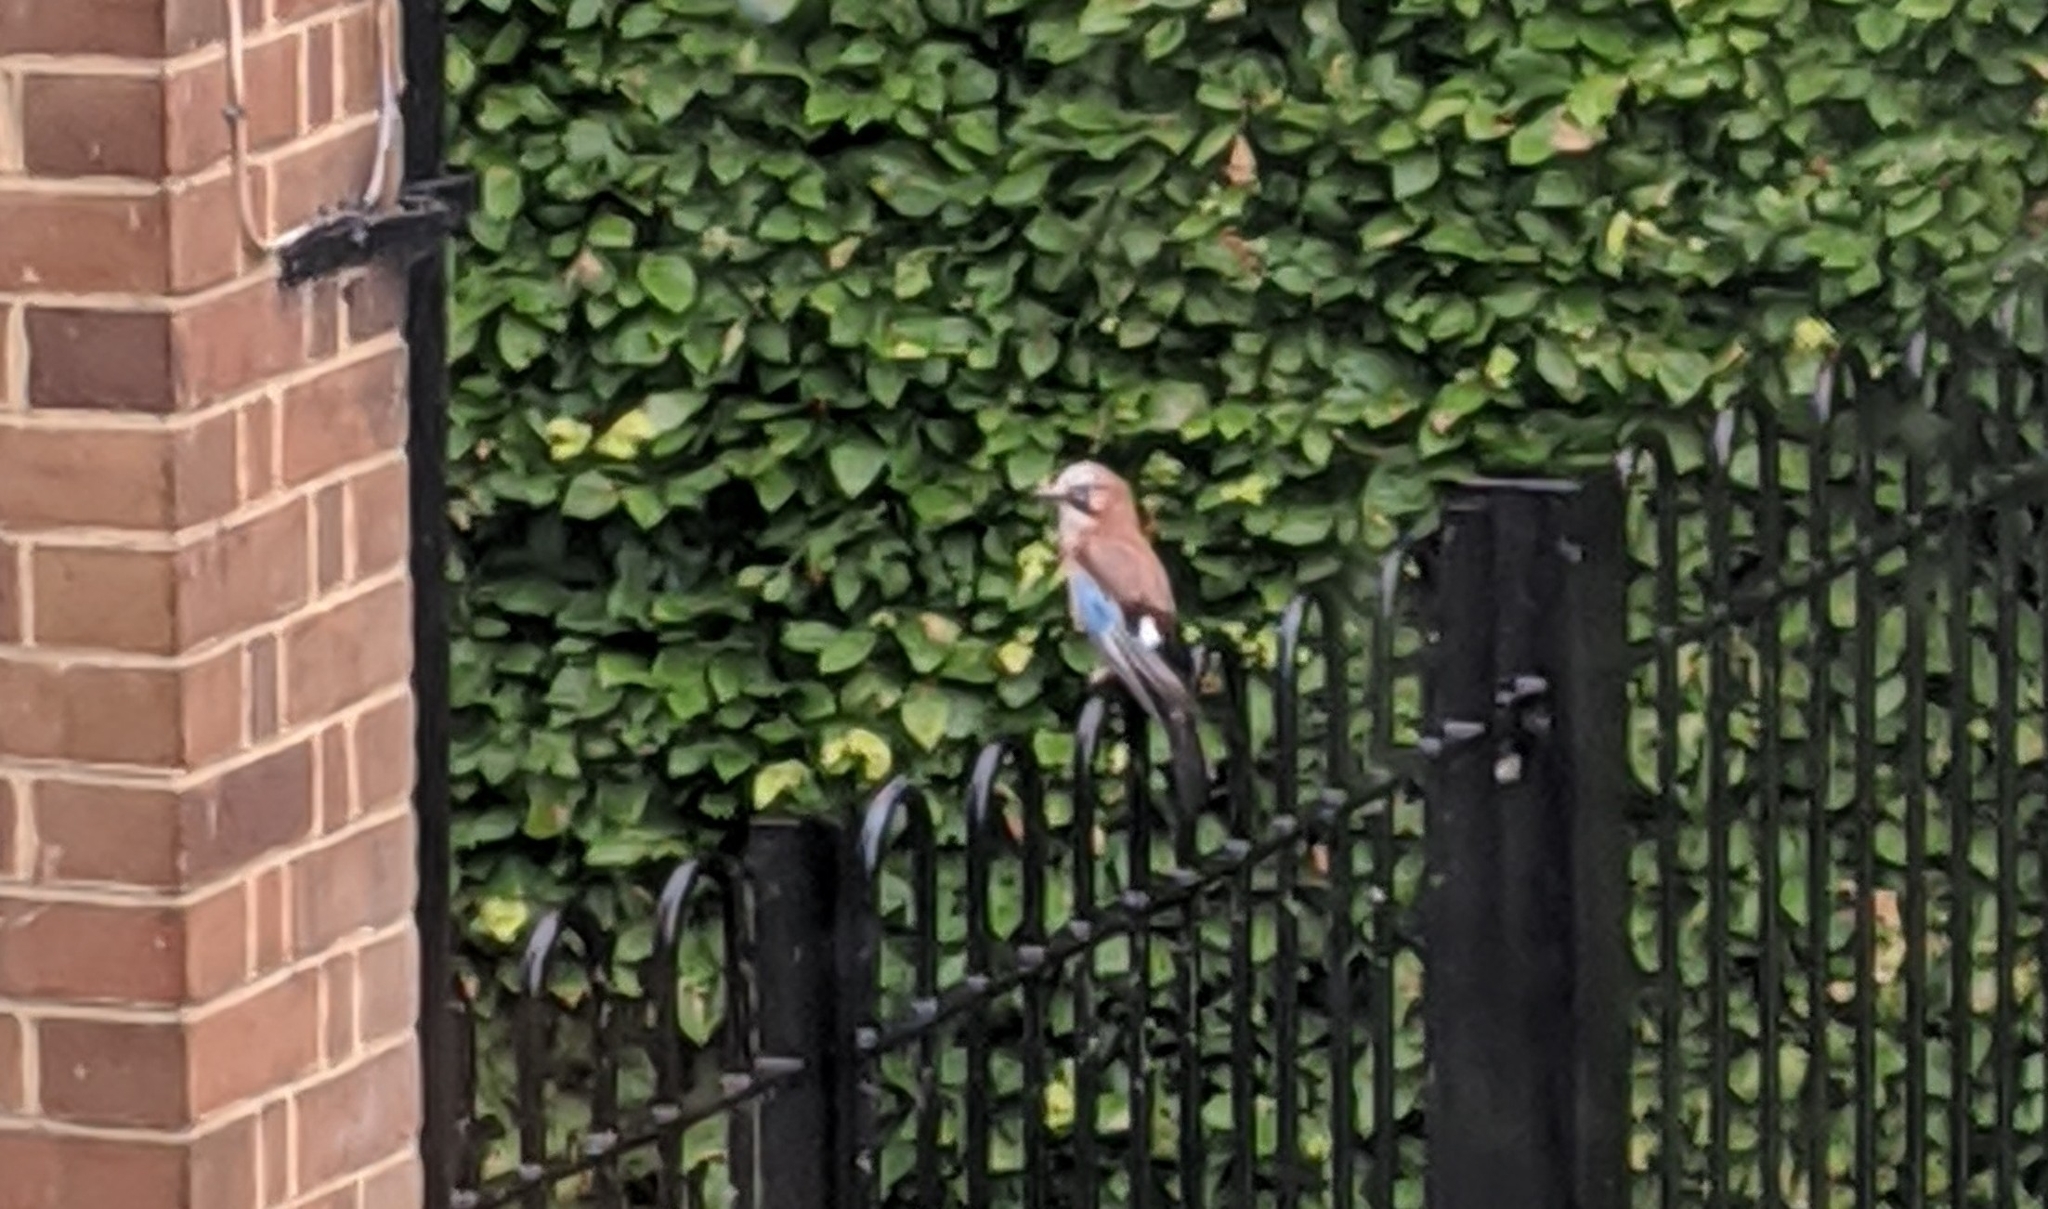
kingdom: Animalia
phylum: Chordata
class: Aves
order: Passeriformes
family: Corvidae
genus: Garrulus
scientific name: Garrulus glandarius
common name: Eurasian jay
